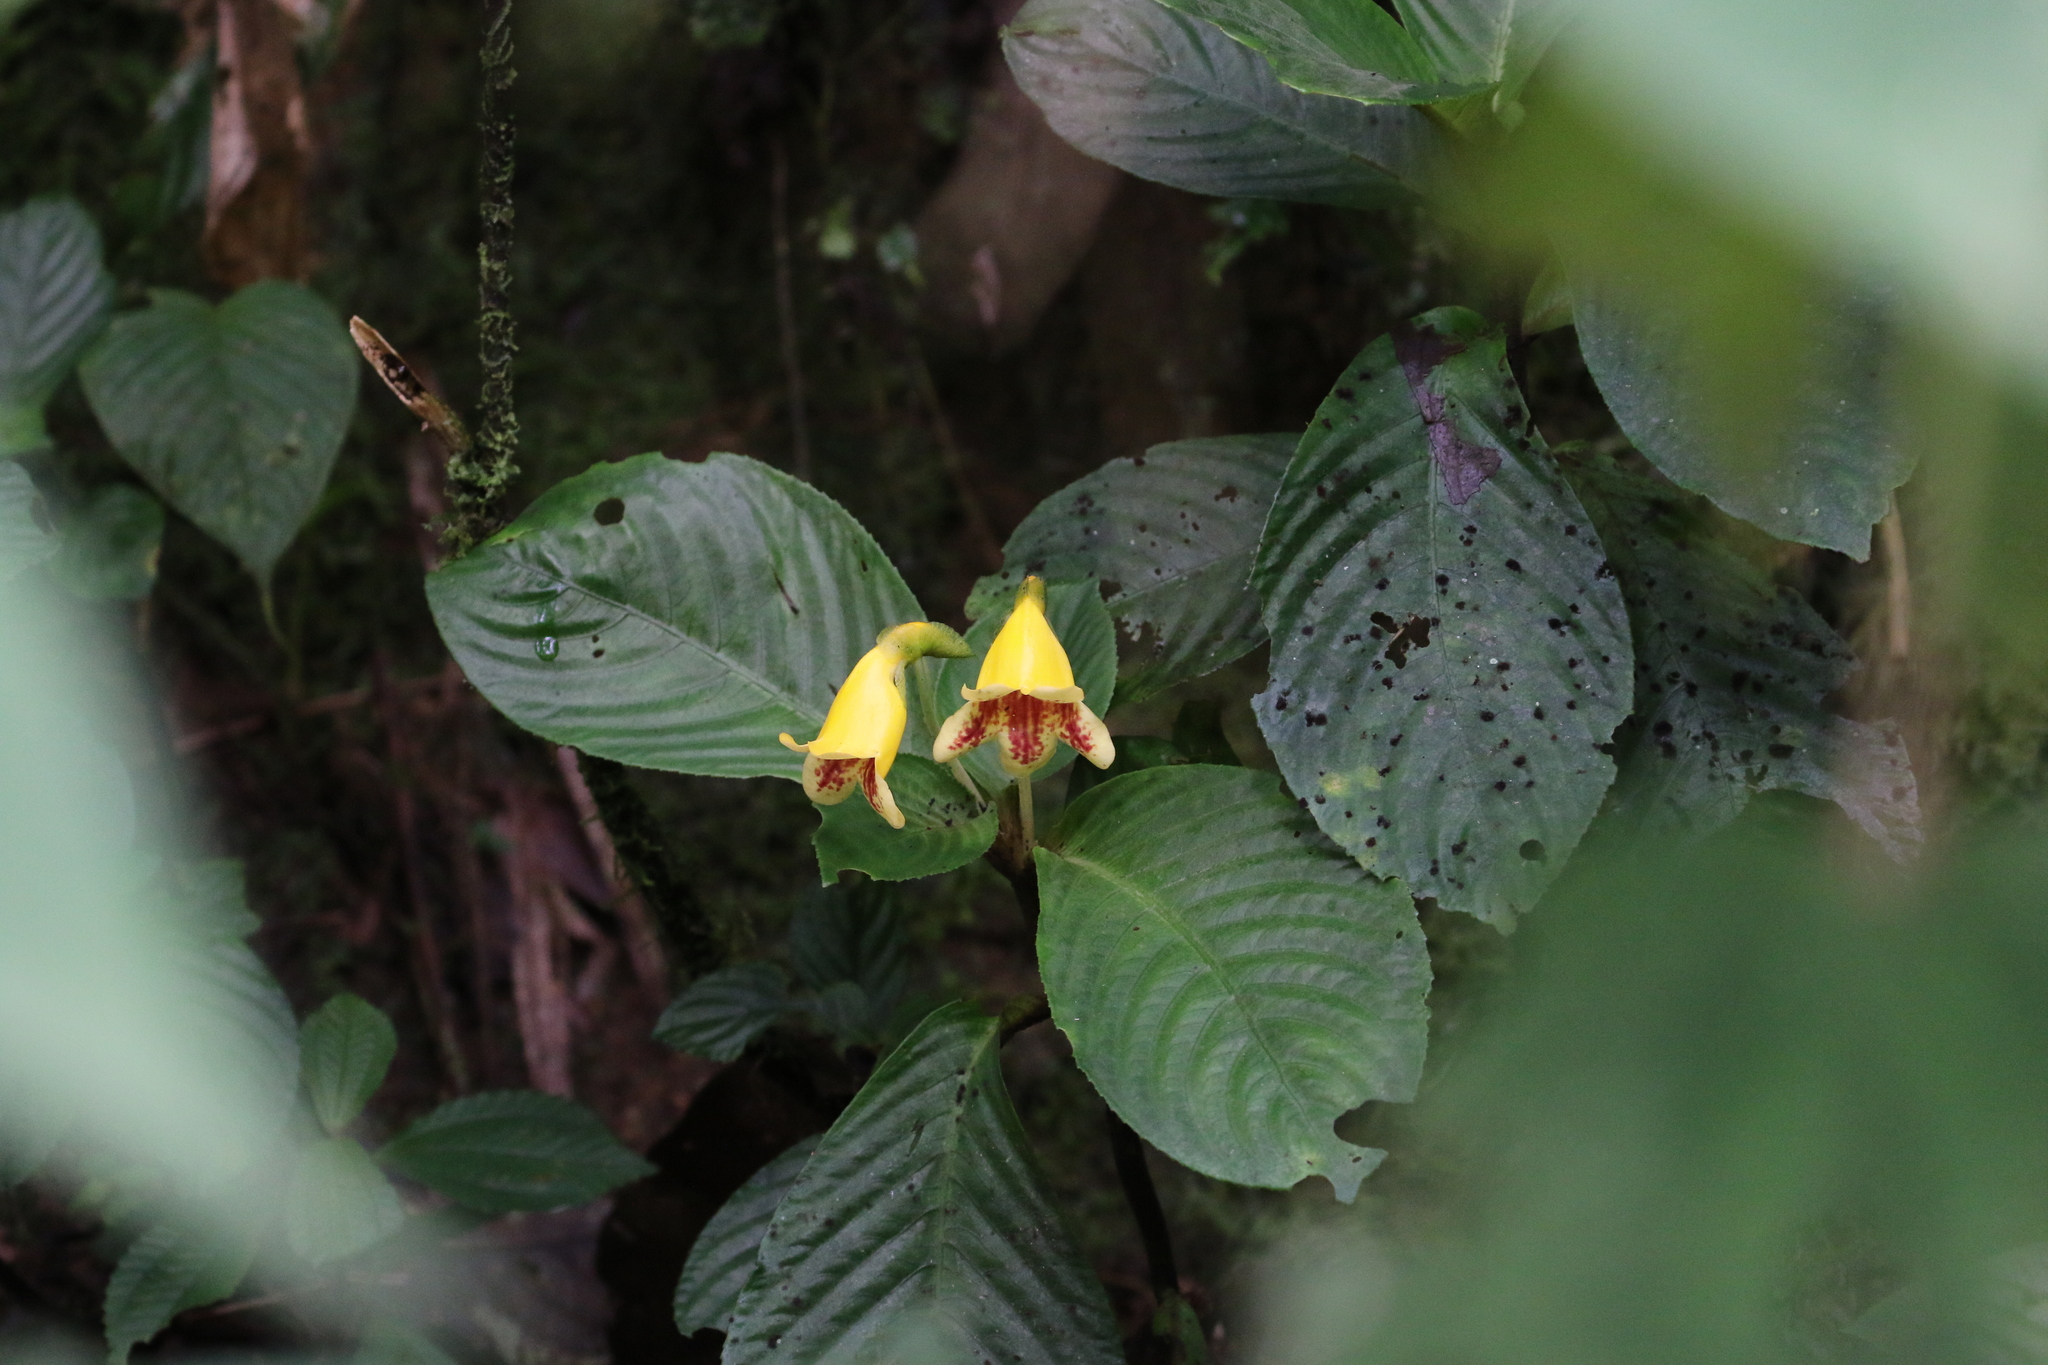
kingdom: Plantae
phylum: Tracheophyta
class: Magnoliopsida
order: Lamiales
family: Gesneriaceae
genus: Gasteranthus
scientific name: Gasteranthus delphinioides
